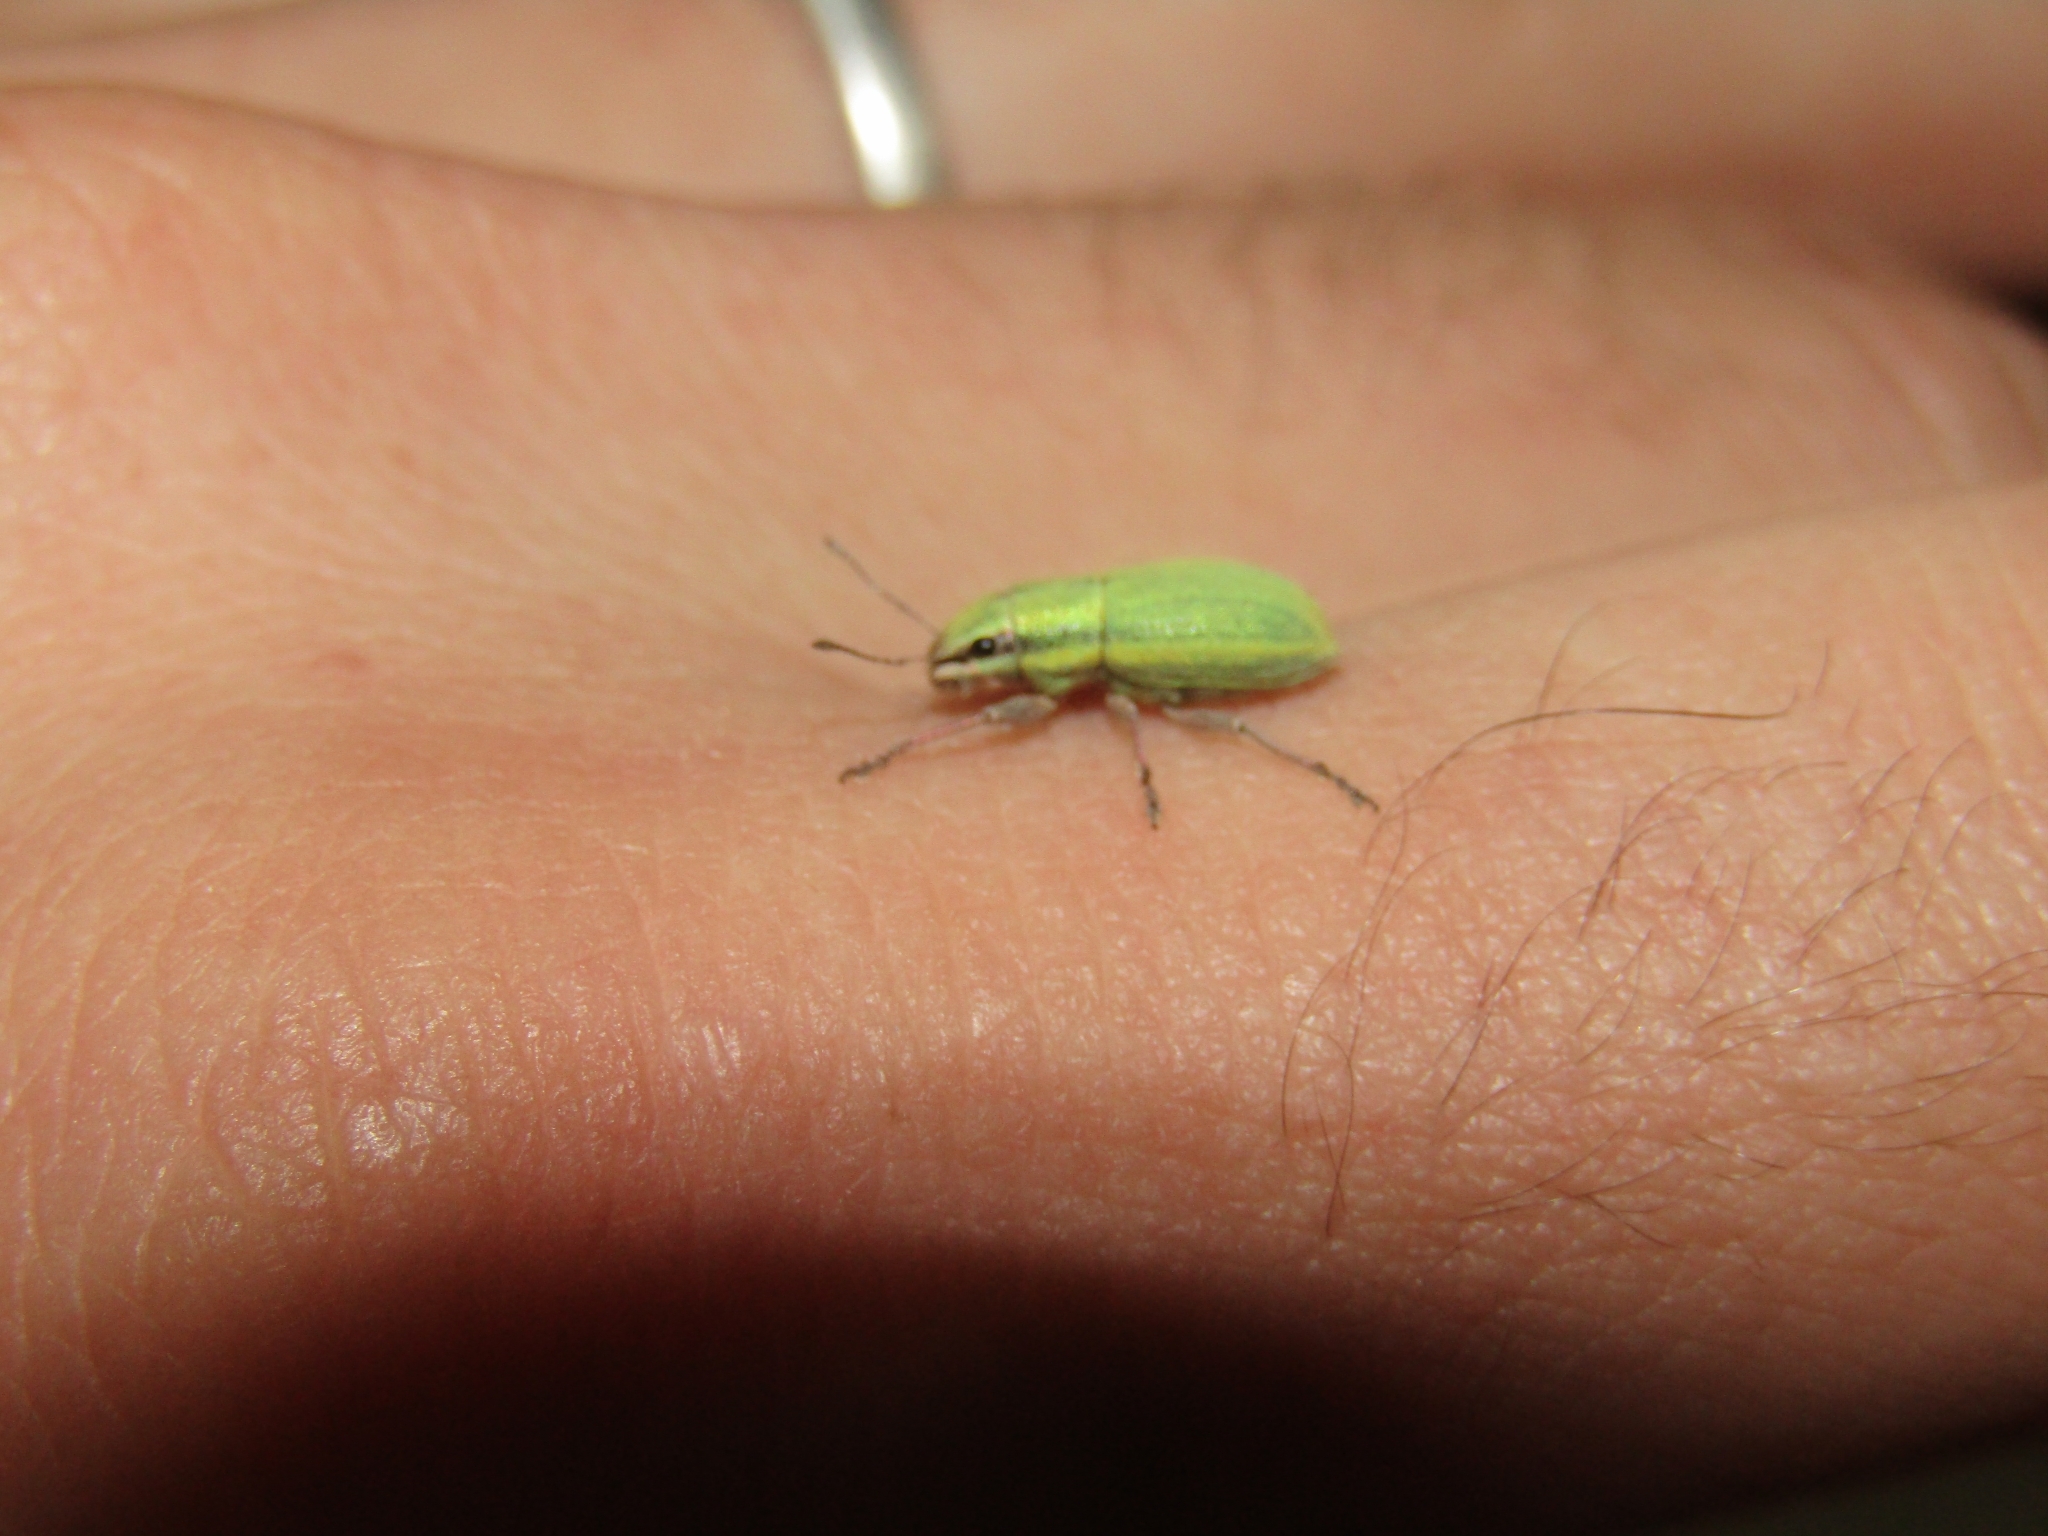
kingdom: Animalia
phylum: Arthropoda
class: Insecta
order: Coleoptera
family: Curculionidae
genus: Pantomorus
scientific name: Pantomorus viridisquamosus
